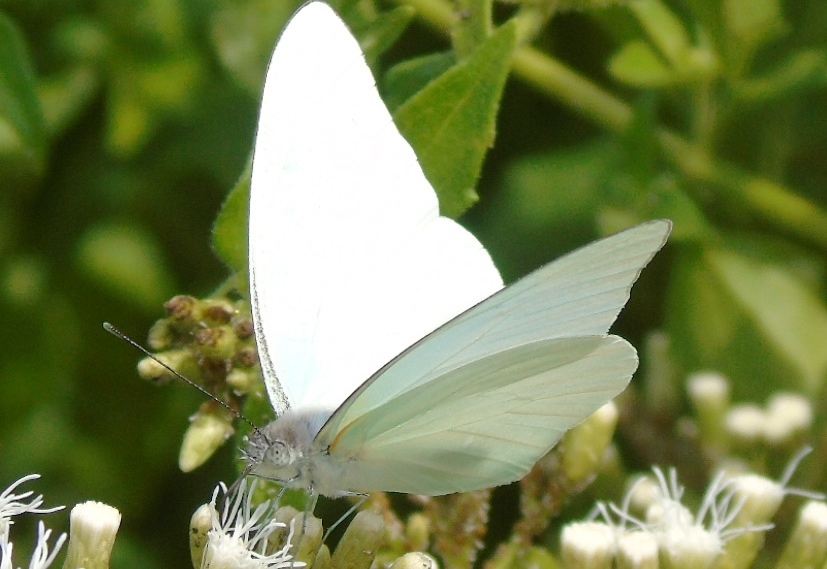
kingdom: Animalia
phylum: Arthropoda
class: Insecta
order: Lepidoptera
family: Pieridae
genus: Glutophrissa
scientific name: Glutophrissa drusilla
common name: Florida white
